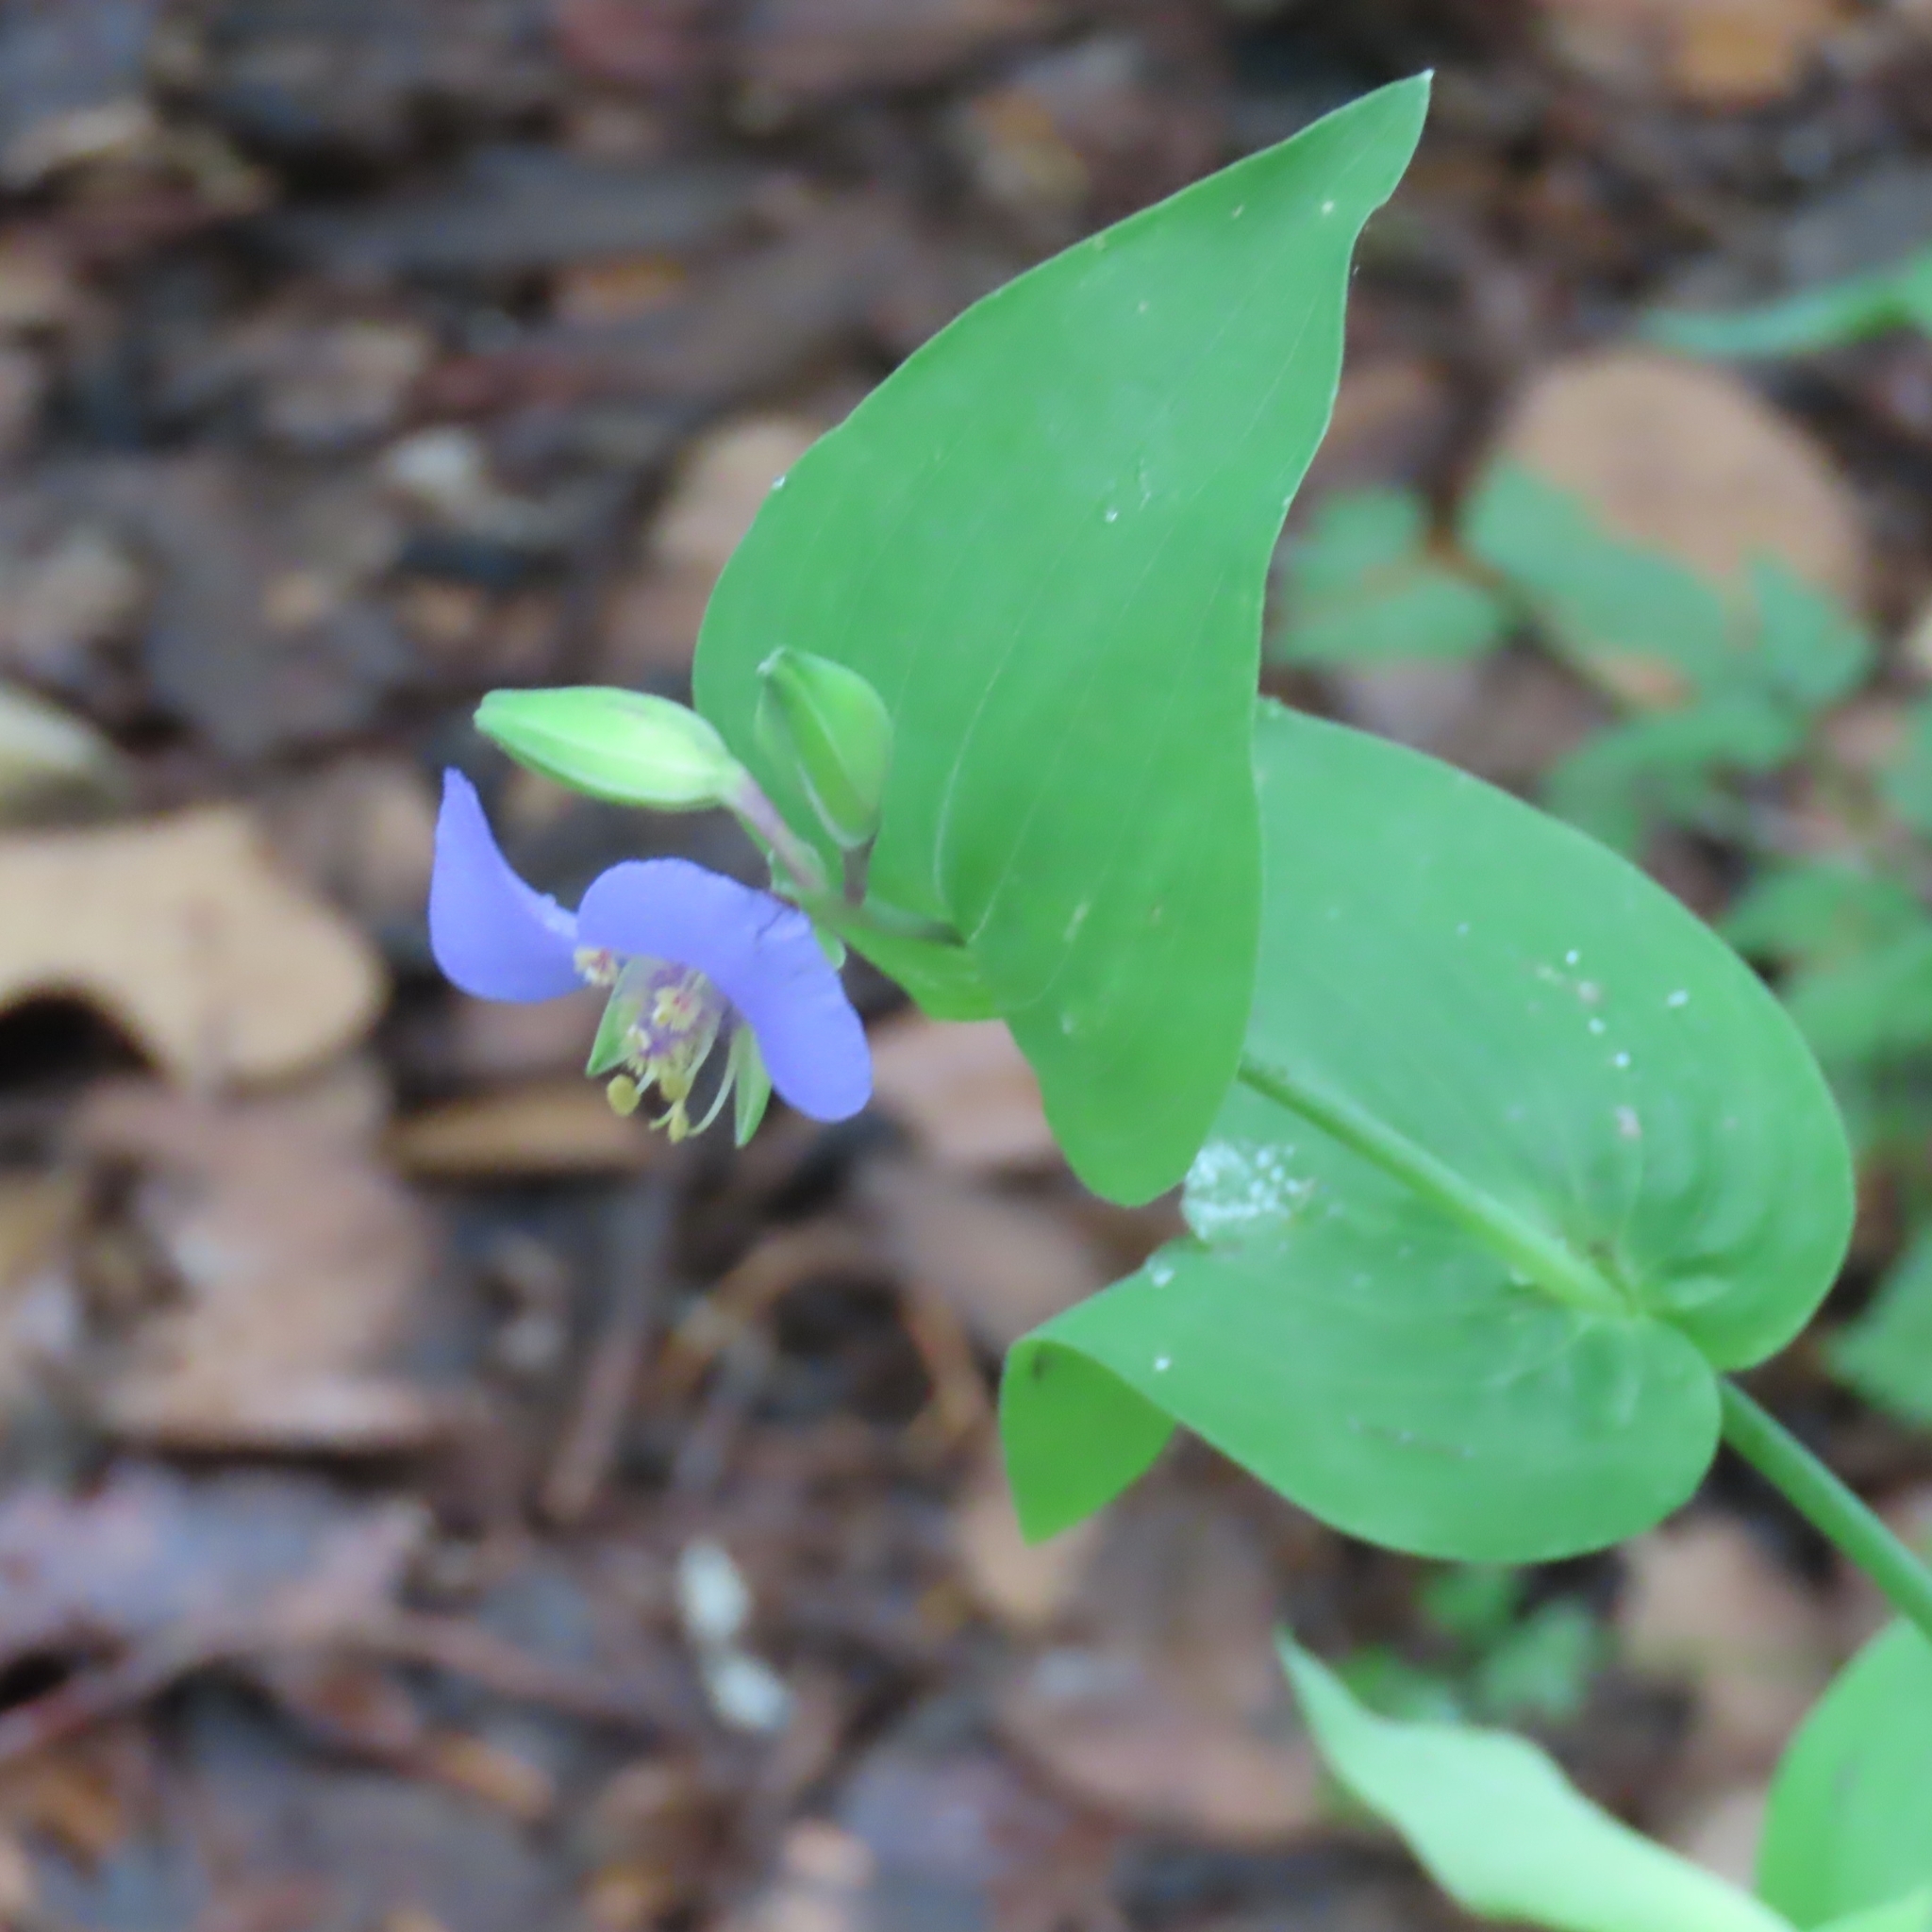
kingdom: Plantae
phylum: Tracheophyta
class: Liliopsida
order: Commelinales
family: Commelinaceae
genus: Tinantia
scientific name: Tinantia anomala
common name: False dayflower
